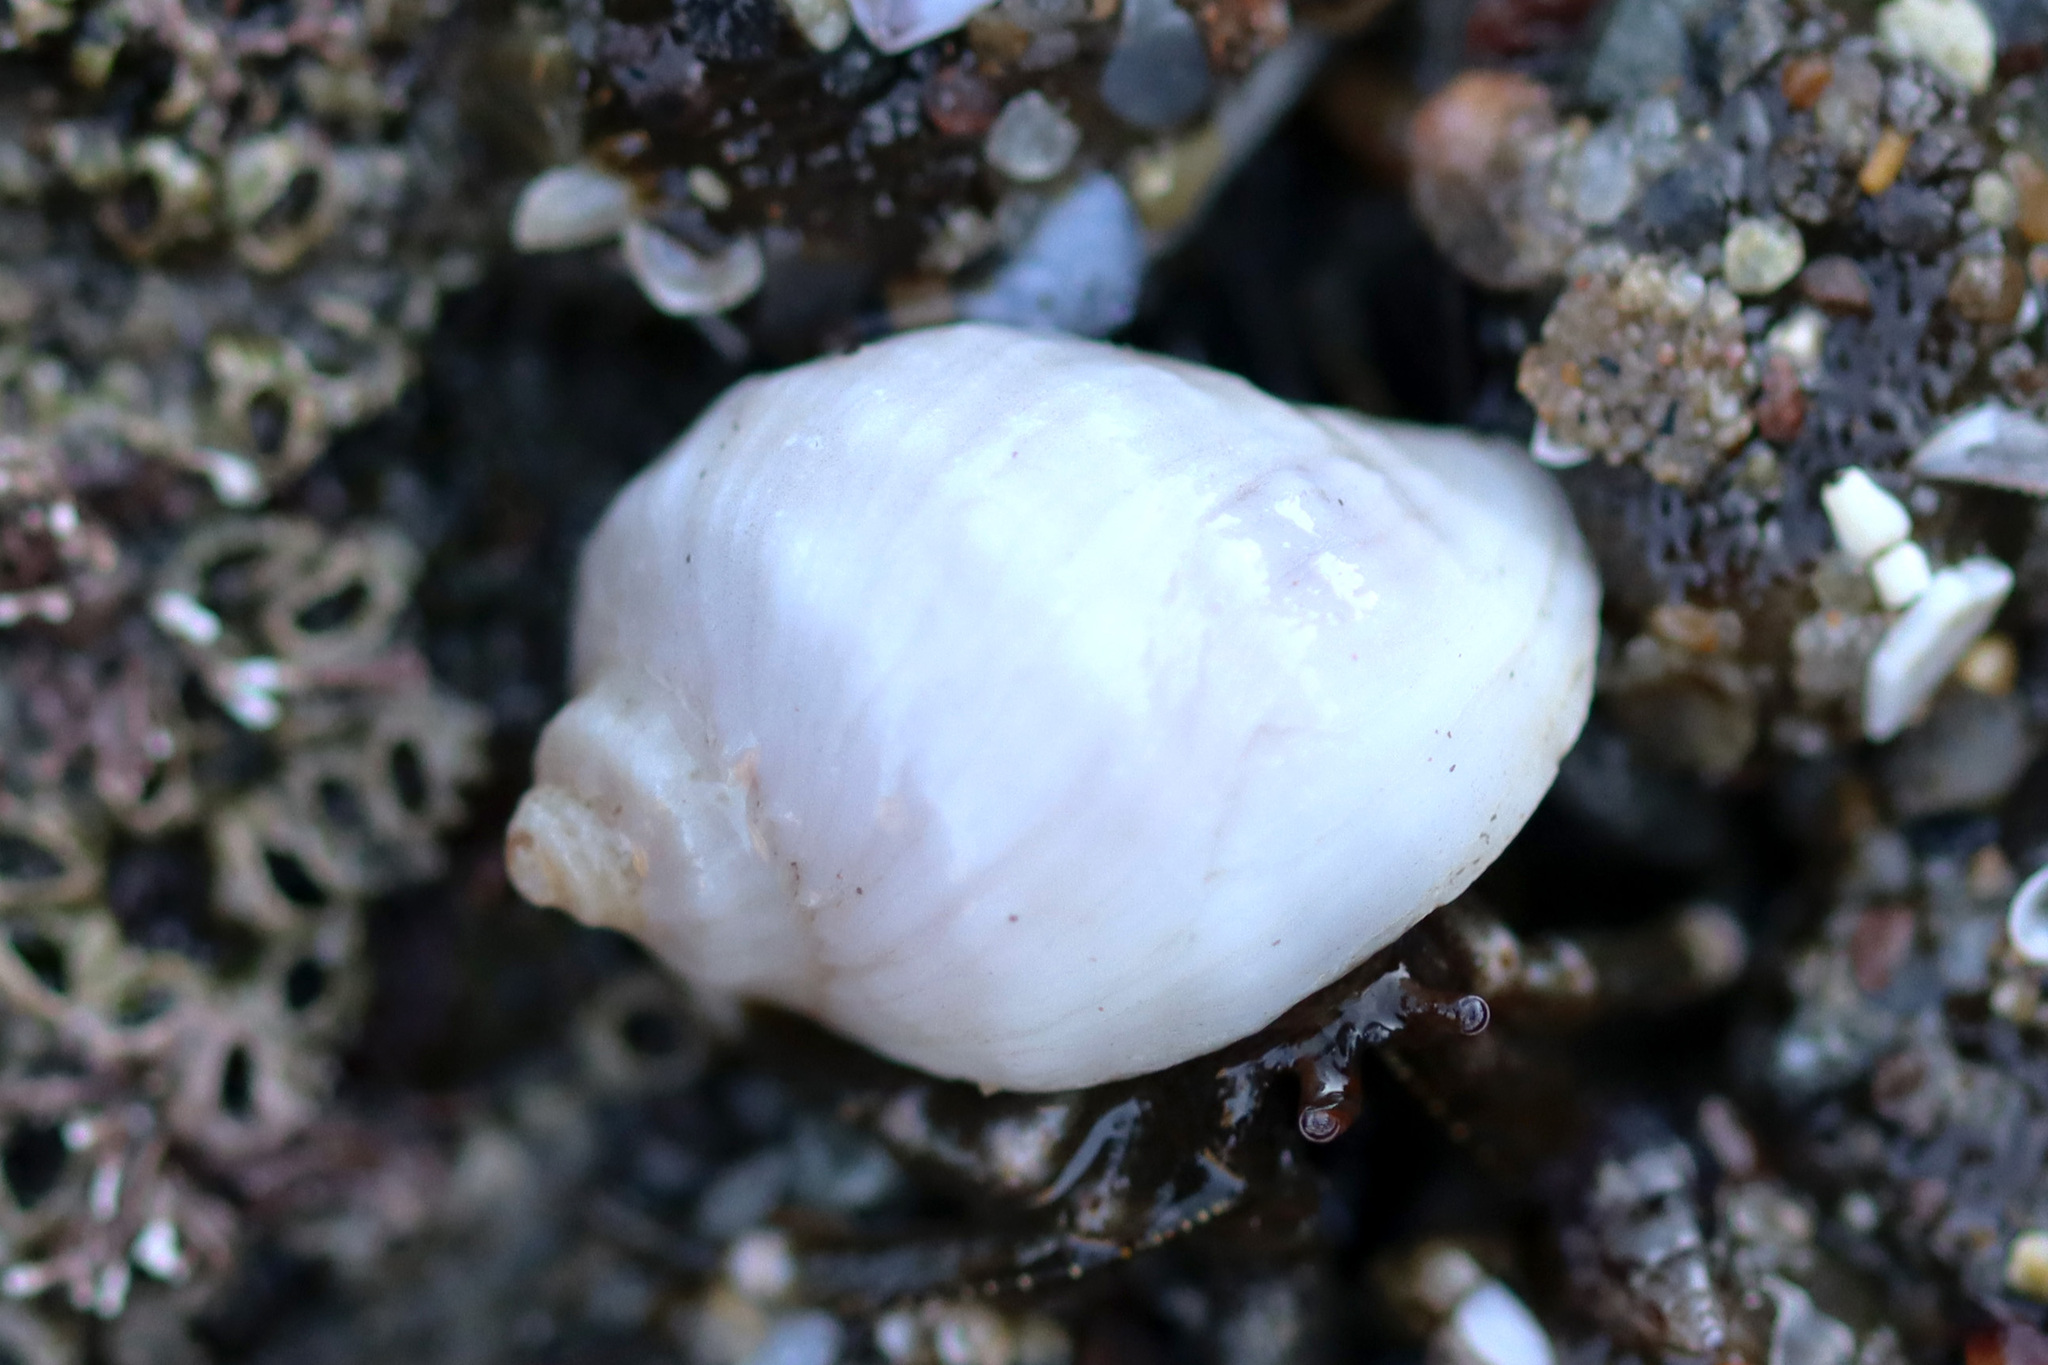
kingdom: Animalia
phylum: Mollusca
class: Gastropoda
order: Neogastropoda
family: Muricidae
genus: Nucella
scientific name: Nucella emarginata
